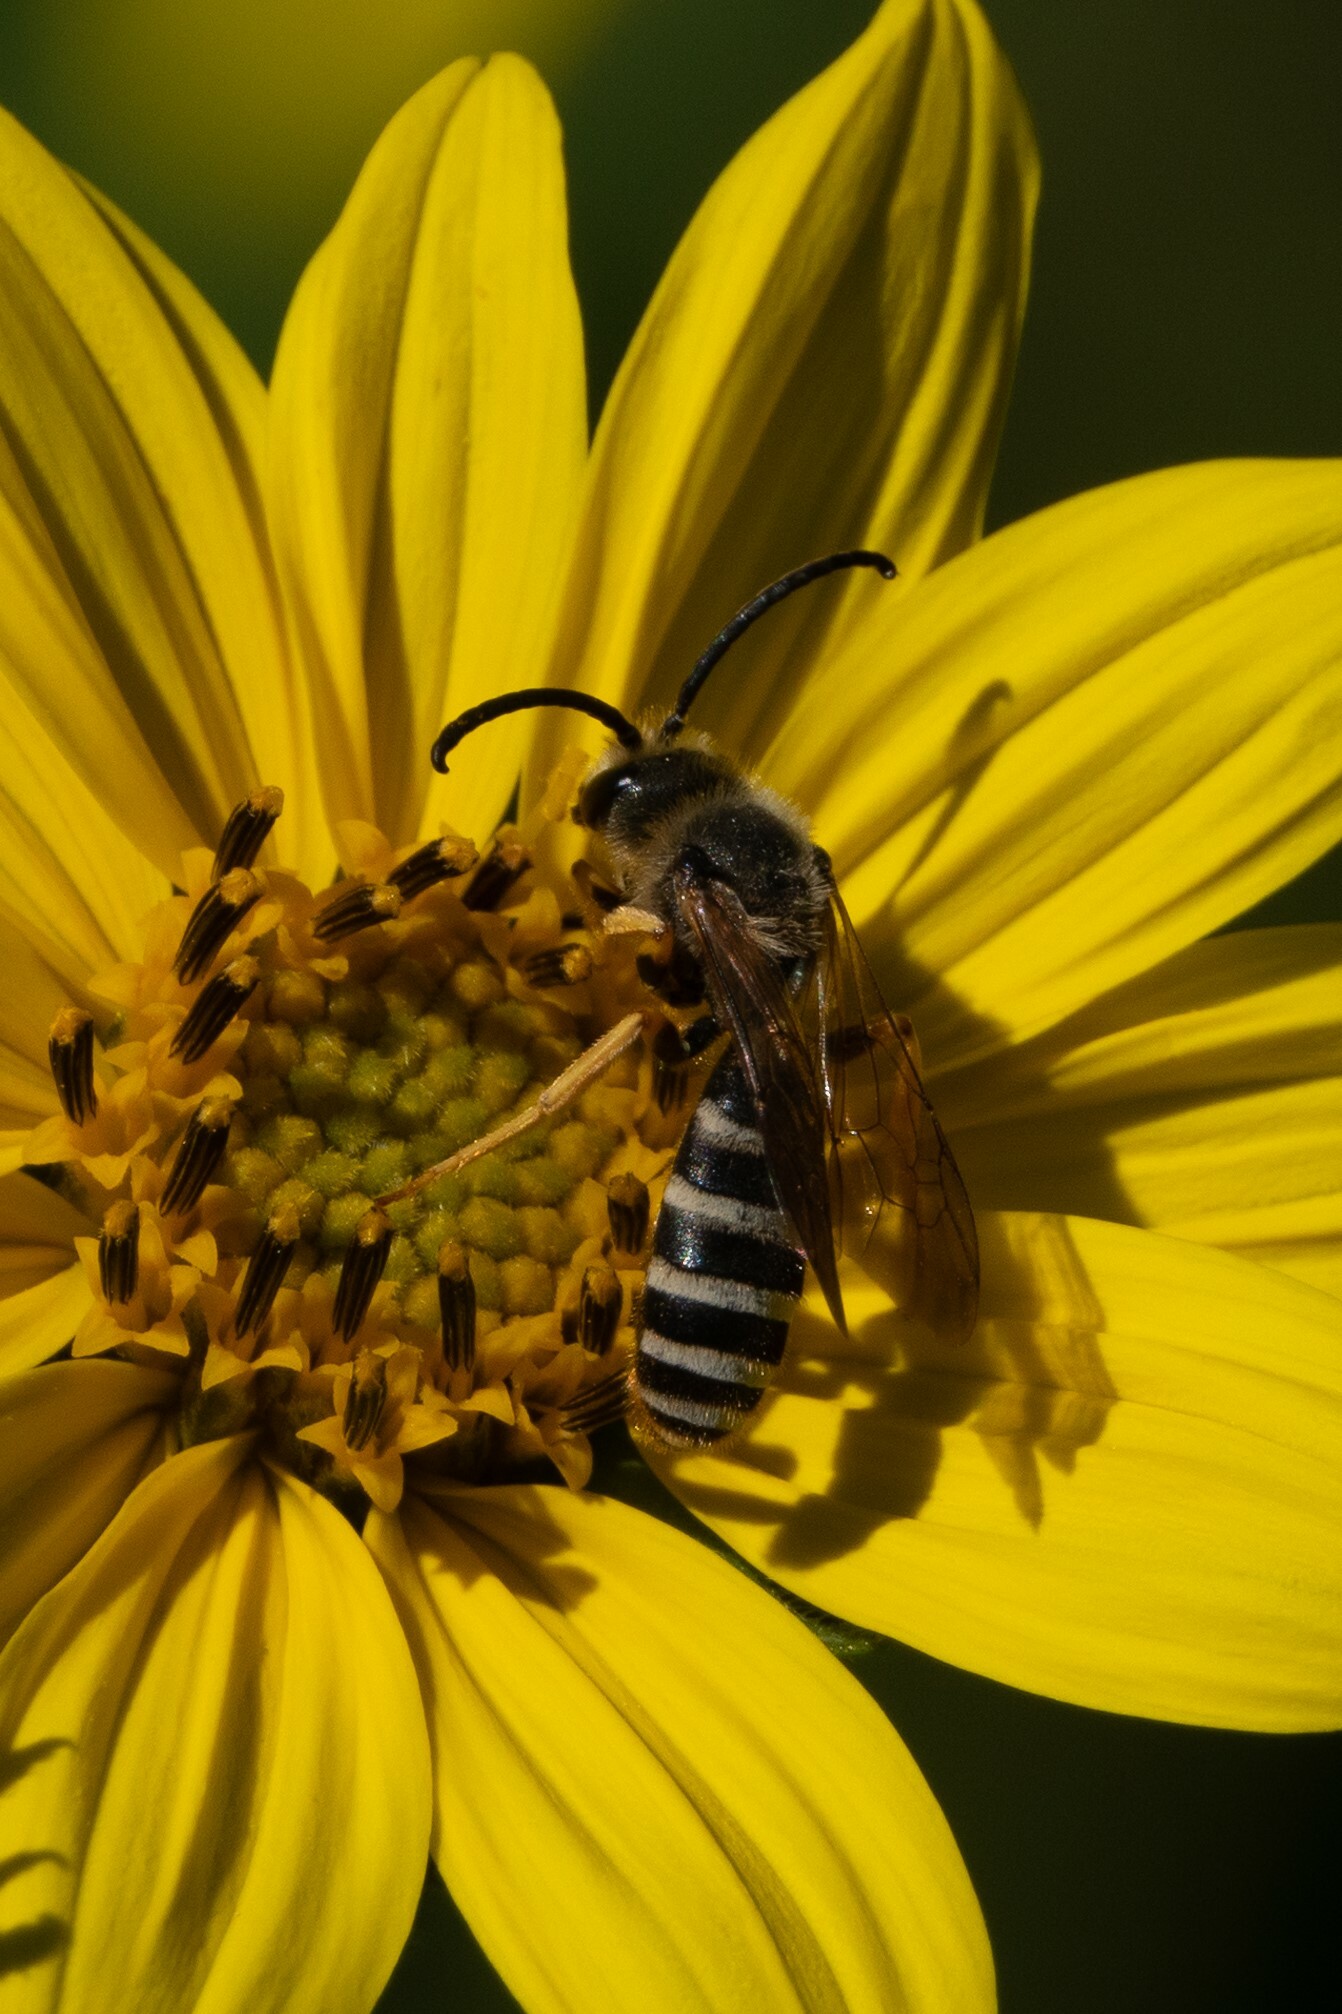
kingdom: Animalia
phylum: Arthropoda
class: Insecta
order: Hymenoptera
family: Halictidae
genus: Halictus
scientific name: Halictus scabiosae
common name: Great banded furrow bee
